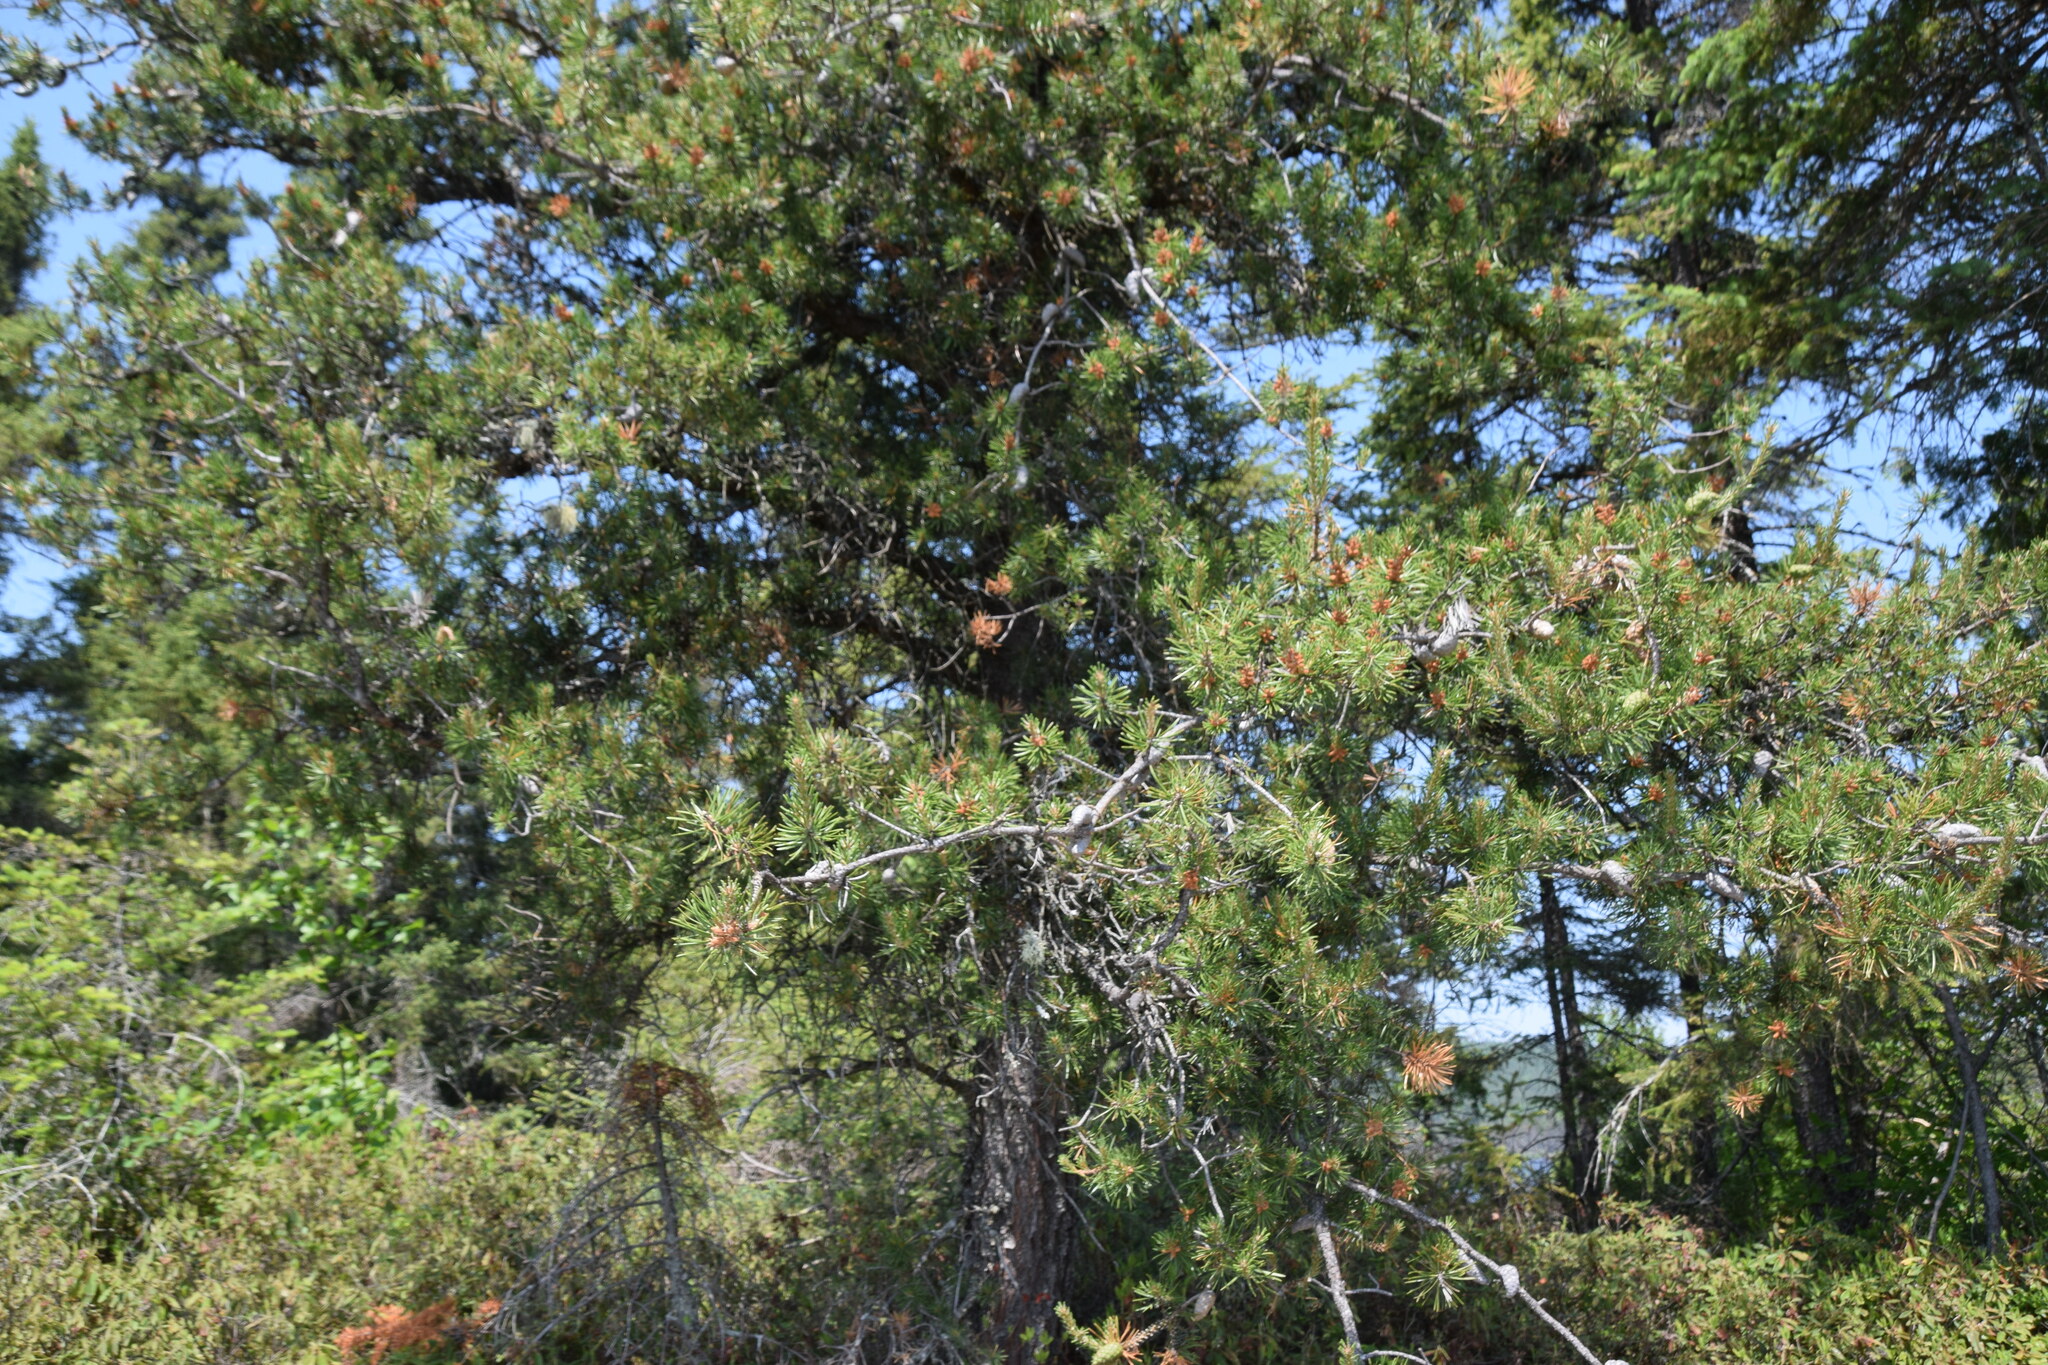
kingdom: Plantae
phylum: Tracheophyta
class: Pinopsida
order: Pinales
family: Pinaceae
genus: Pinus
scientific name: Pinus banksiana
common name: Jack pine
